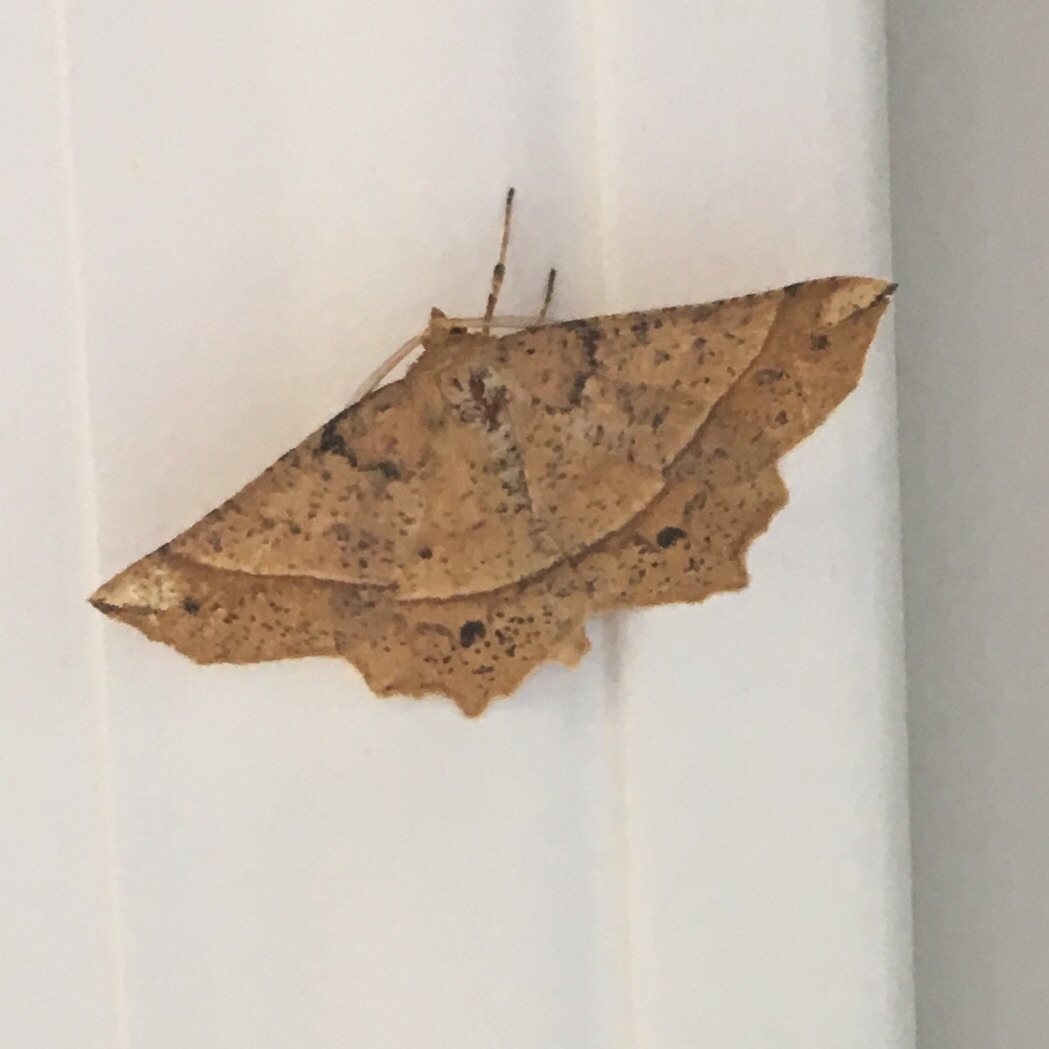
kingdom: Animalia
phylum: Arthropoda
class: Insecta
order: Lepidoptera
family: Geometridae
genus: Euchlaena
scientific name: Euchlaena tigrinaria
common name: Mottled euchlaena moth
